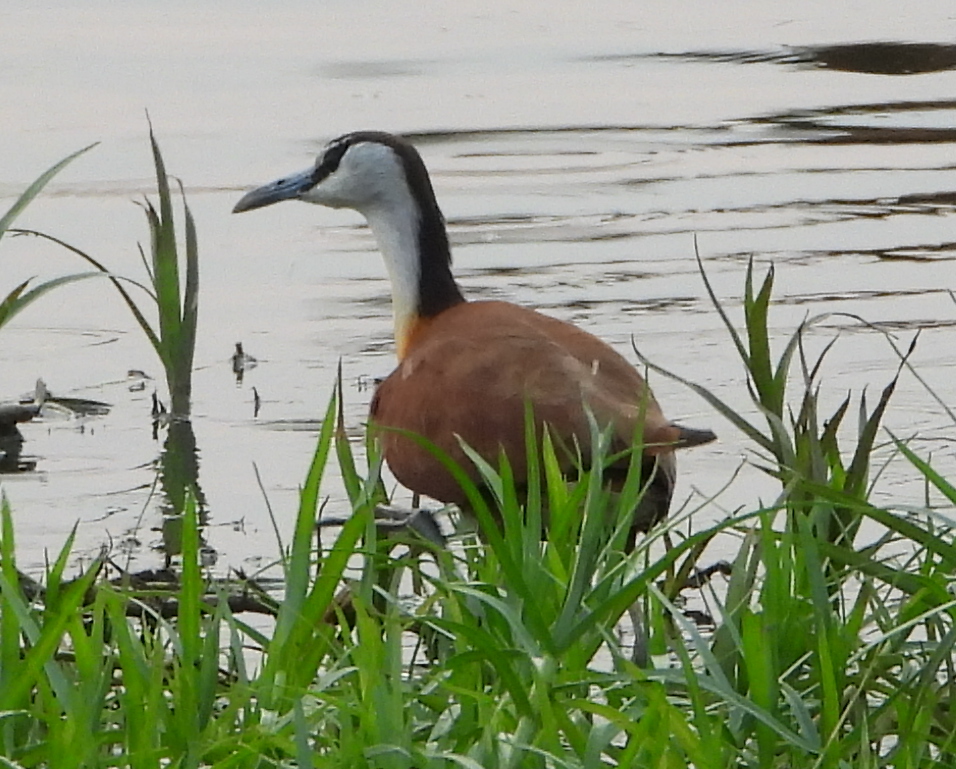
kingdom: Animalia
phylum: Chordata
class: Aves
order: Charadriiformes
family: Jacanidae
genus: Actophilornis
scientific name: Actophilornis africanus
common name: African jacana
